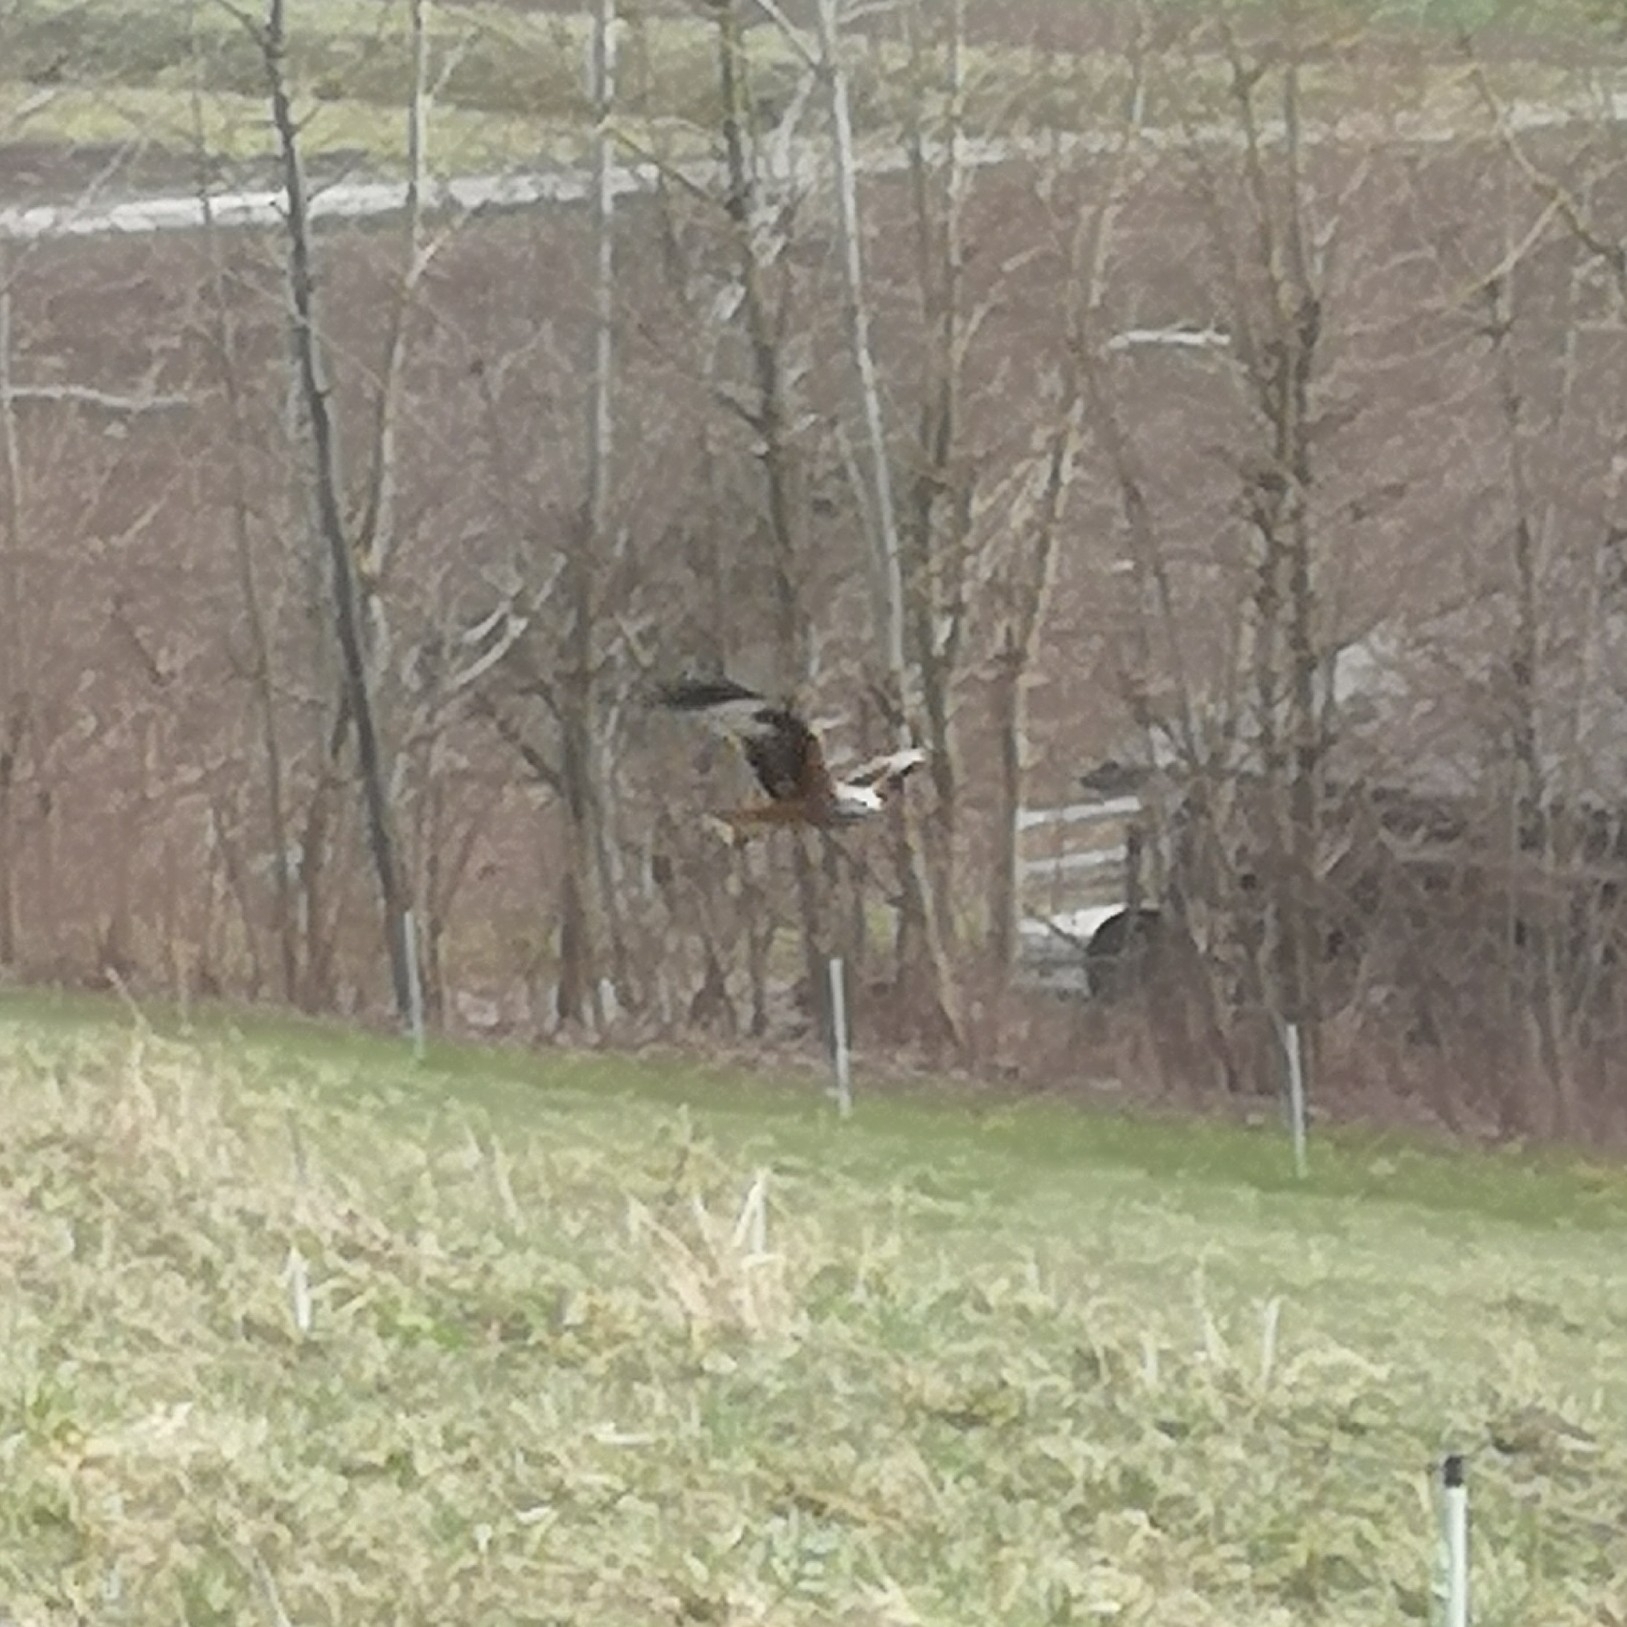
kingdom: Animalia
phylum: Chordata
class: Aves
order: Accipitriformes
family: Accipitridae
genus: Milvus
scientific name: Milvus milvus
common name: Red kite
